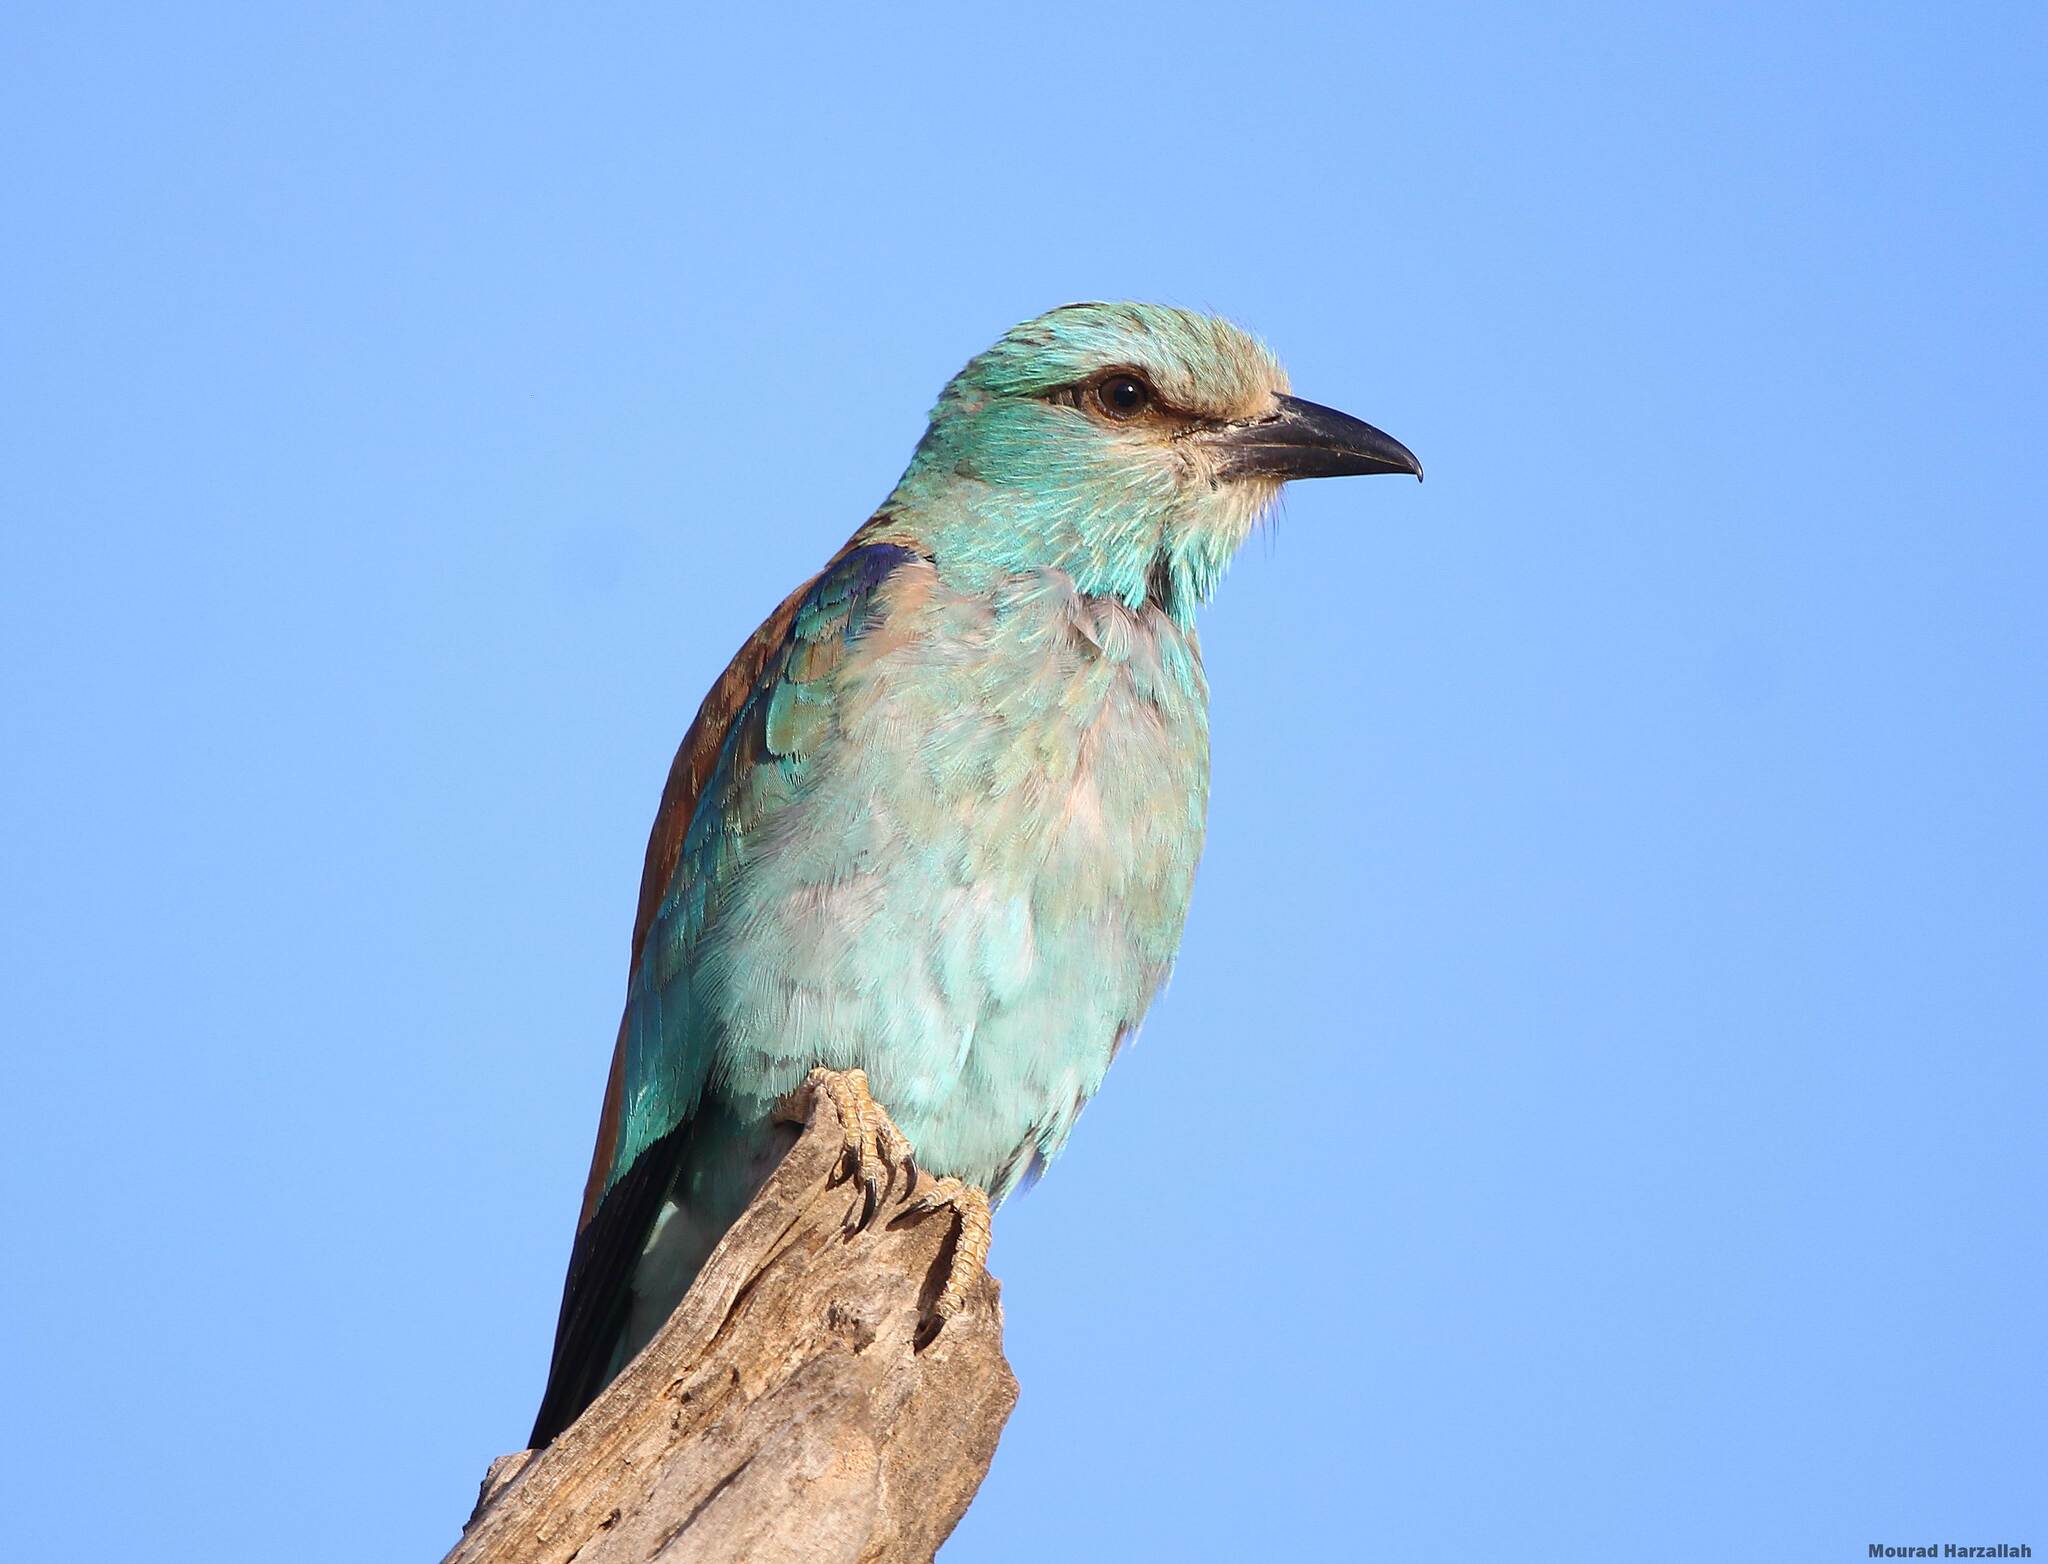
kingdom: Animalia
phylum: Chordata
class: Aves
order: Coraciiformes
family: Coraciidae
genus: Coracias
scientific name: Coracias garrulus
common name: European roller
